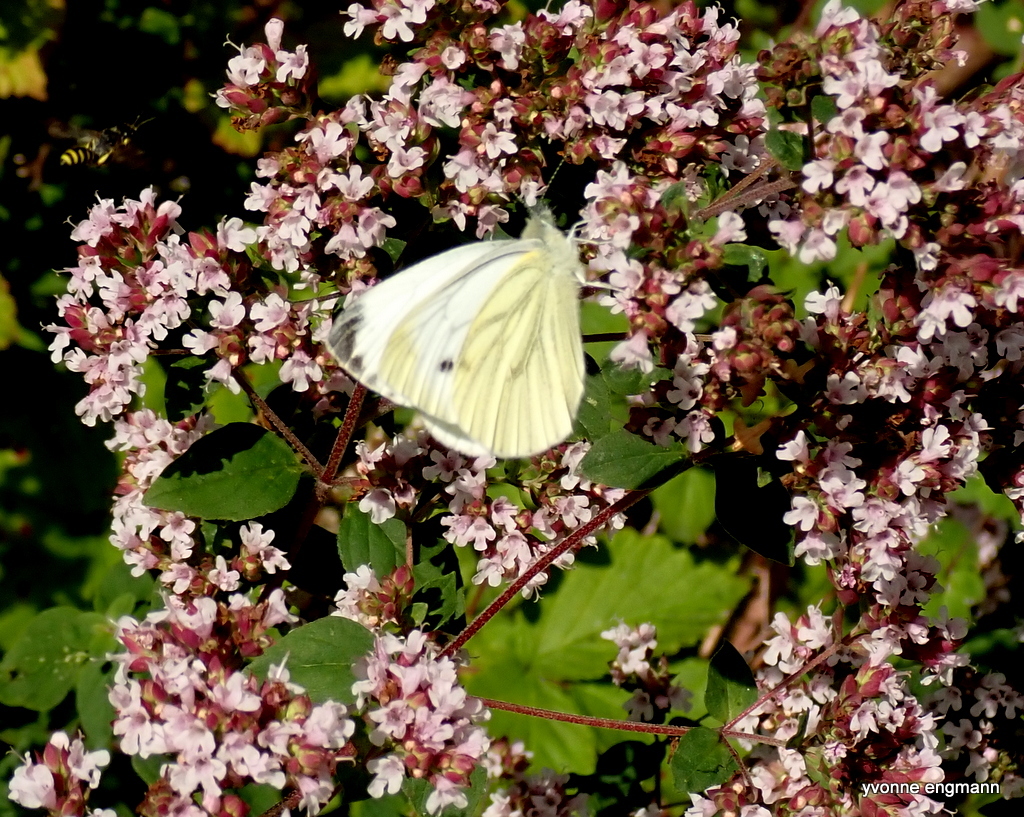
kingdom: Animalia
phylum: Arthropoda
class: Insecta
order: Lepidoptera
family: Pieridae
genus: Pieris
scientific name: Pieris napi
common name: Green-veined white
